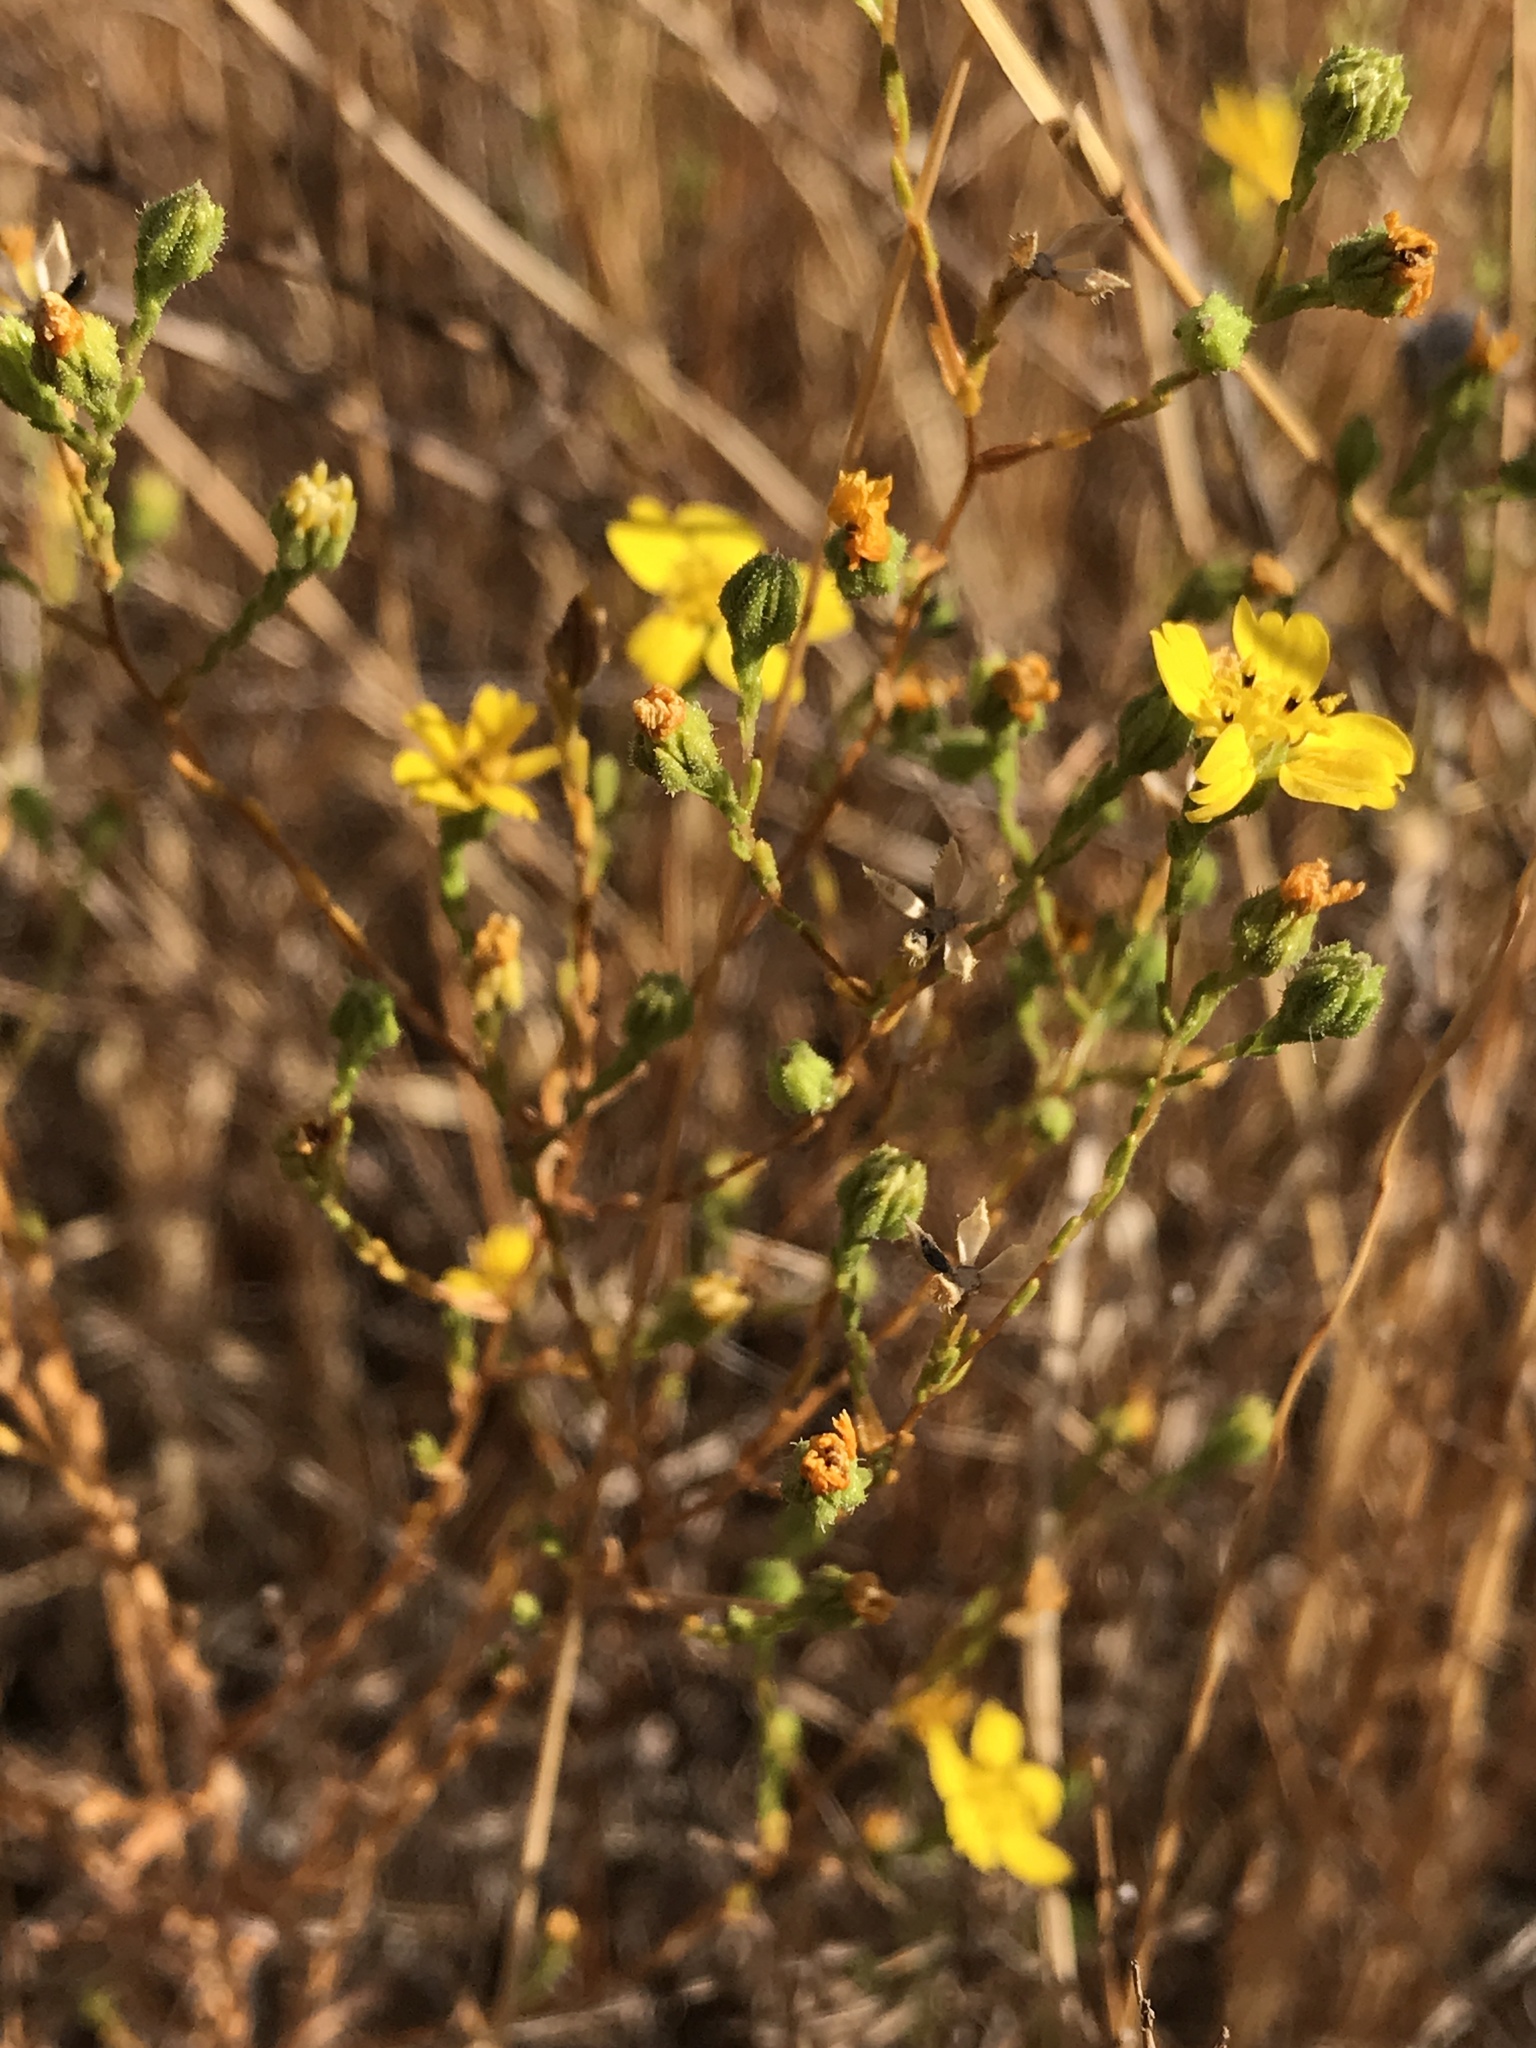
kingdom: Plantae
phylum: Tracheophyta
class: Magnoliopsida
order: Asterales
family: Asteraceae
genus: Deinandra
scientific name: Deinandra pentactis
